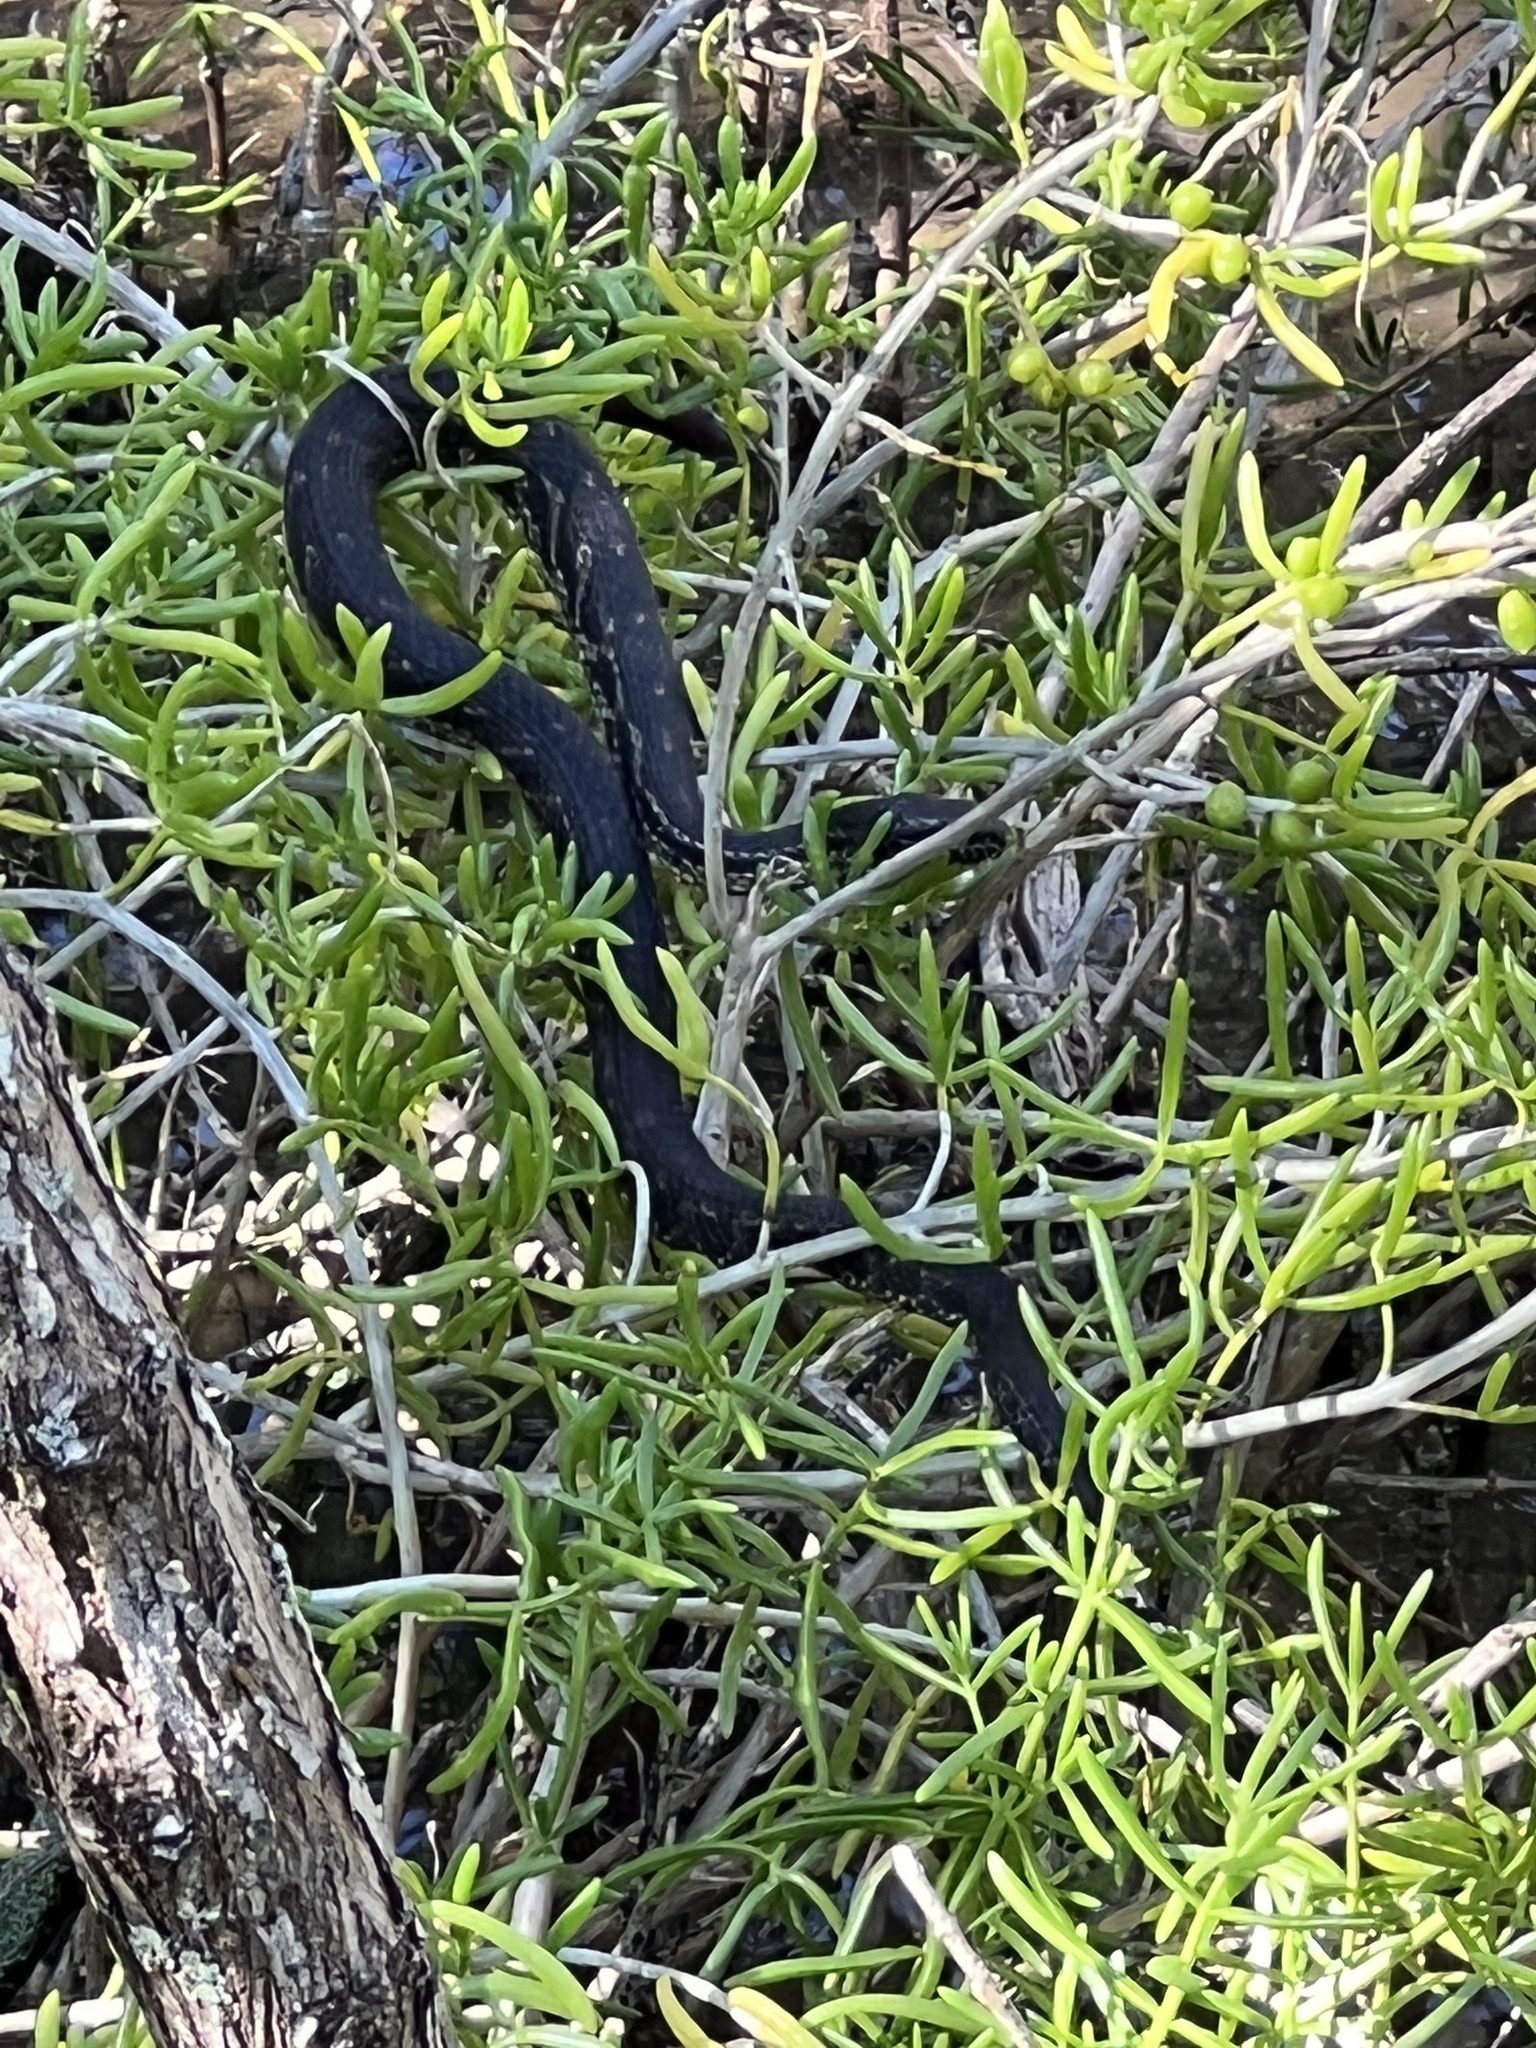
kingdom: Animalia
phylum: Chordata
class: Squamata
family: Colubridae
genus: Nerodia
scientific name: Nerodia clarkii
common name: Atlantic saltmarsh snake
